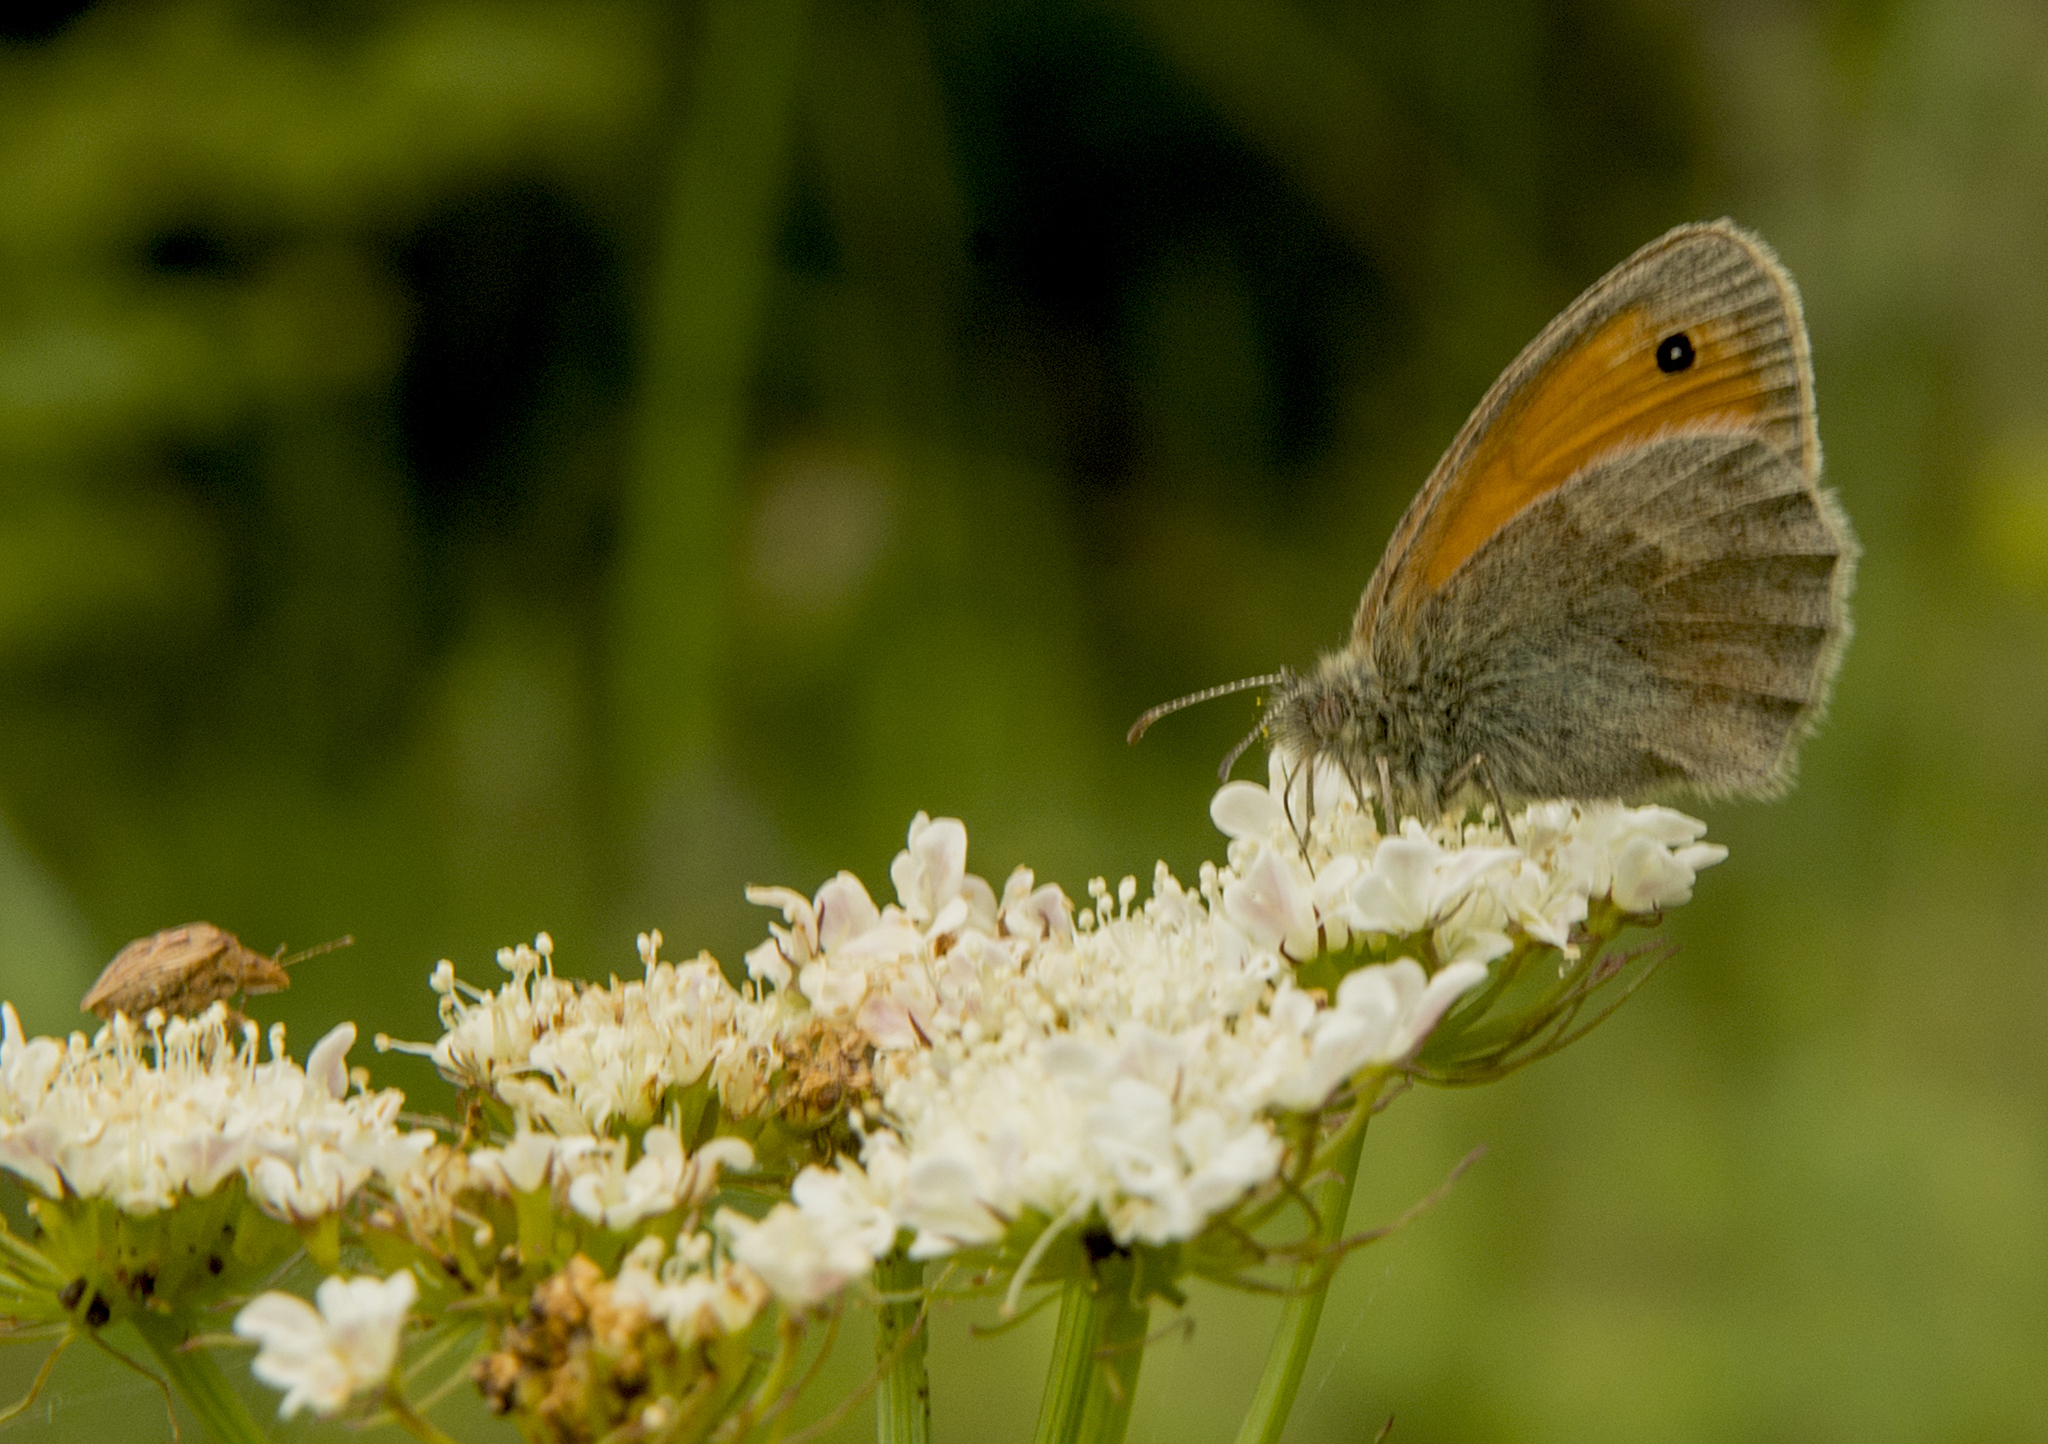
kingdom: Animalia
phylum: Arthropoda
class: Insecta
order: Lepidoptera
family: Nymphalidae
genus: Coenonympha
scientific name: Coenonympha pamphilus
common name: Small heath
